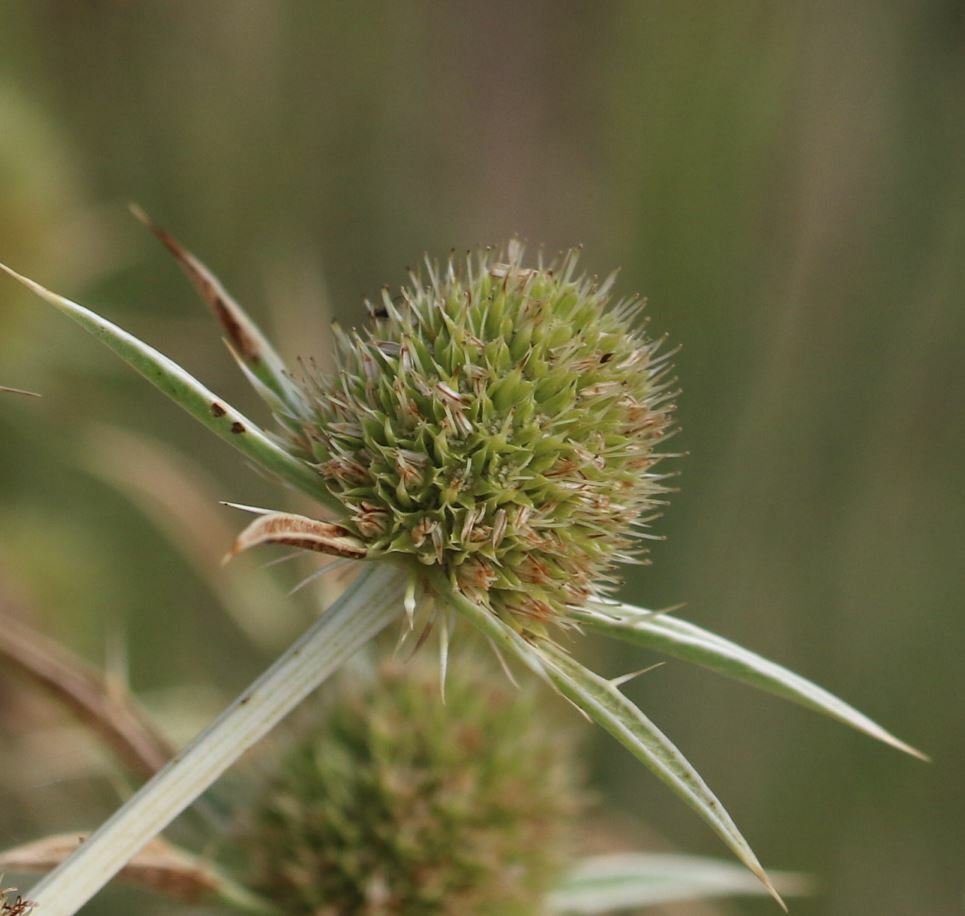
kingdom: Plantae
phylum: Tracheophyta
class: Magnoliopsida
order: Apiales
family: Apiaceae
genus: Eryngium
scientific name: Eryngium campestre
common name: Field eryngo
